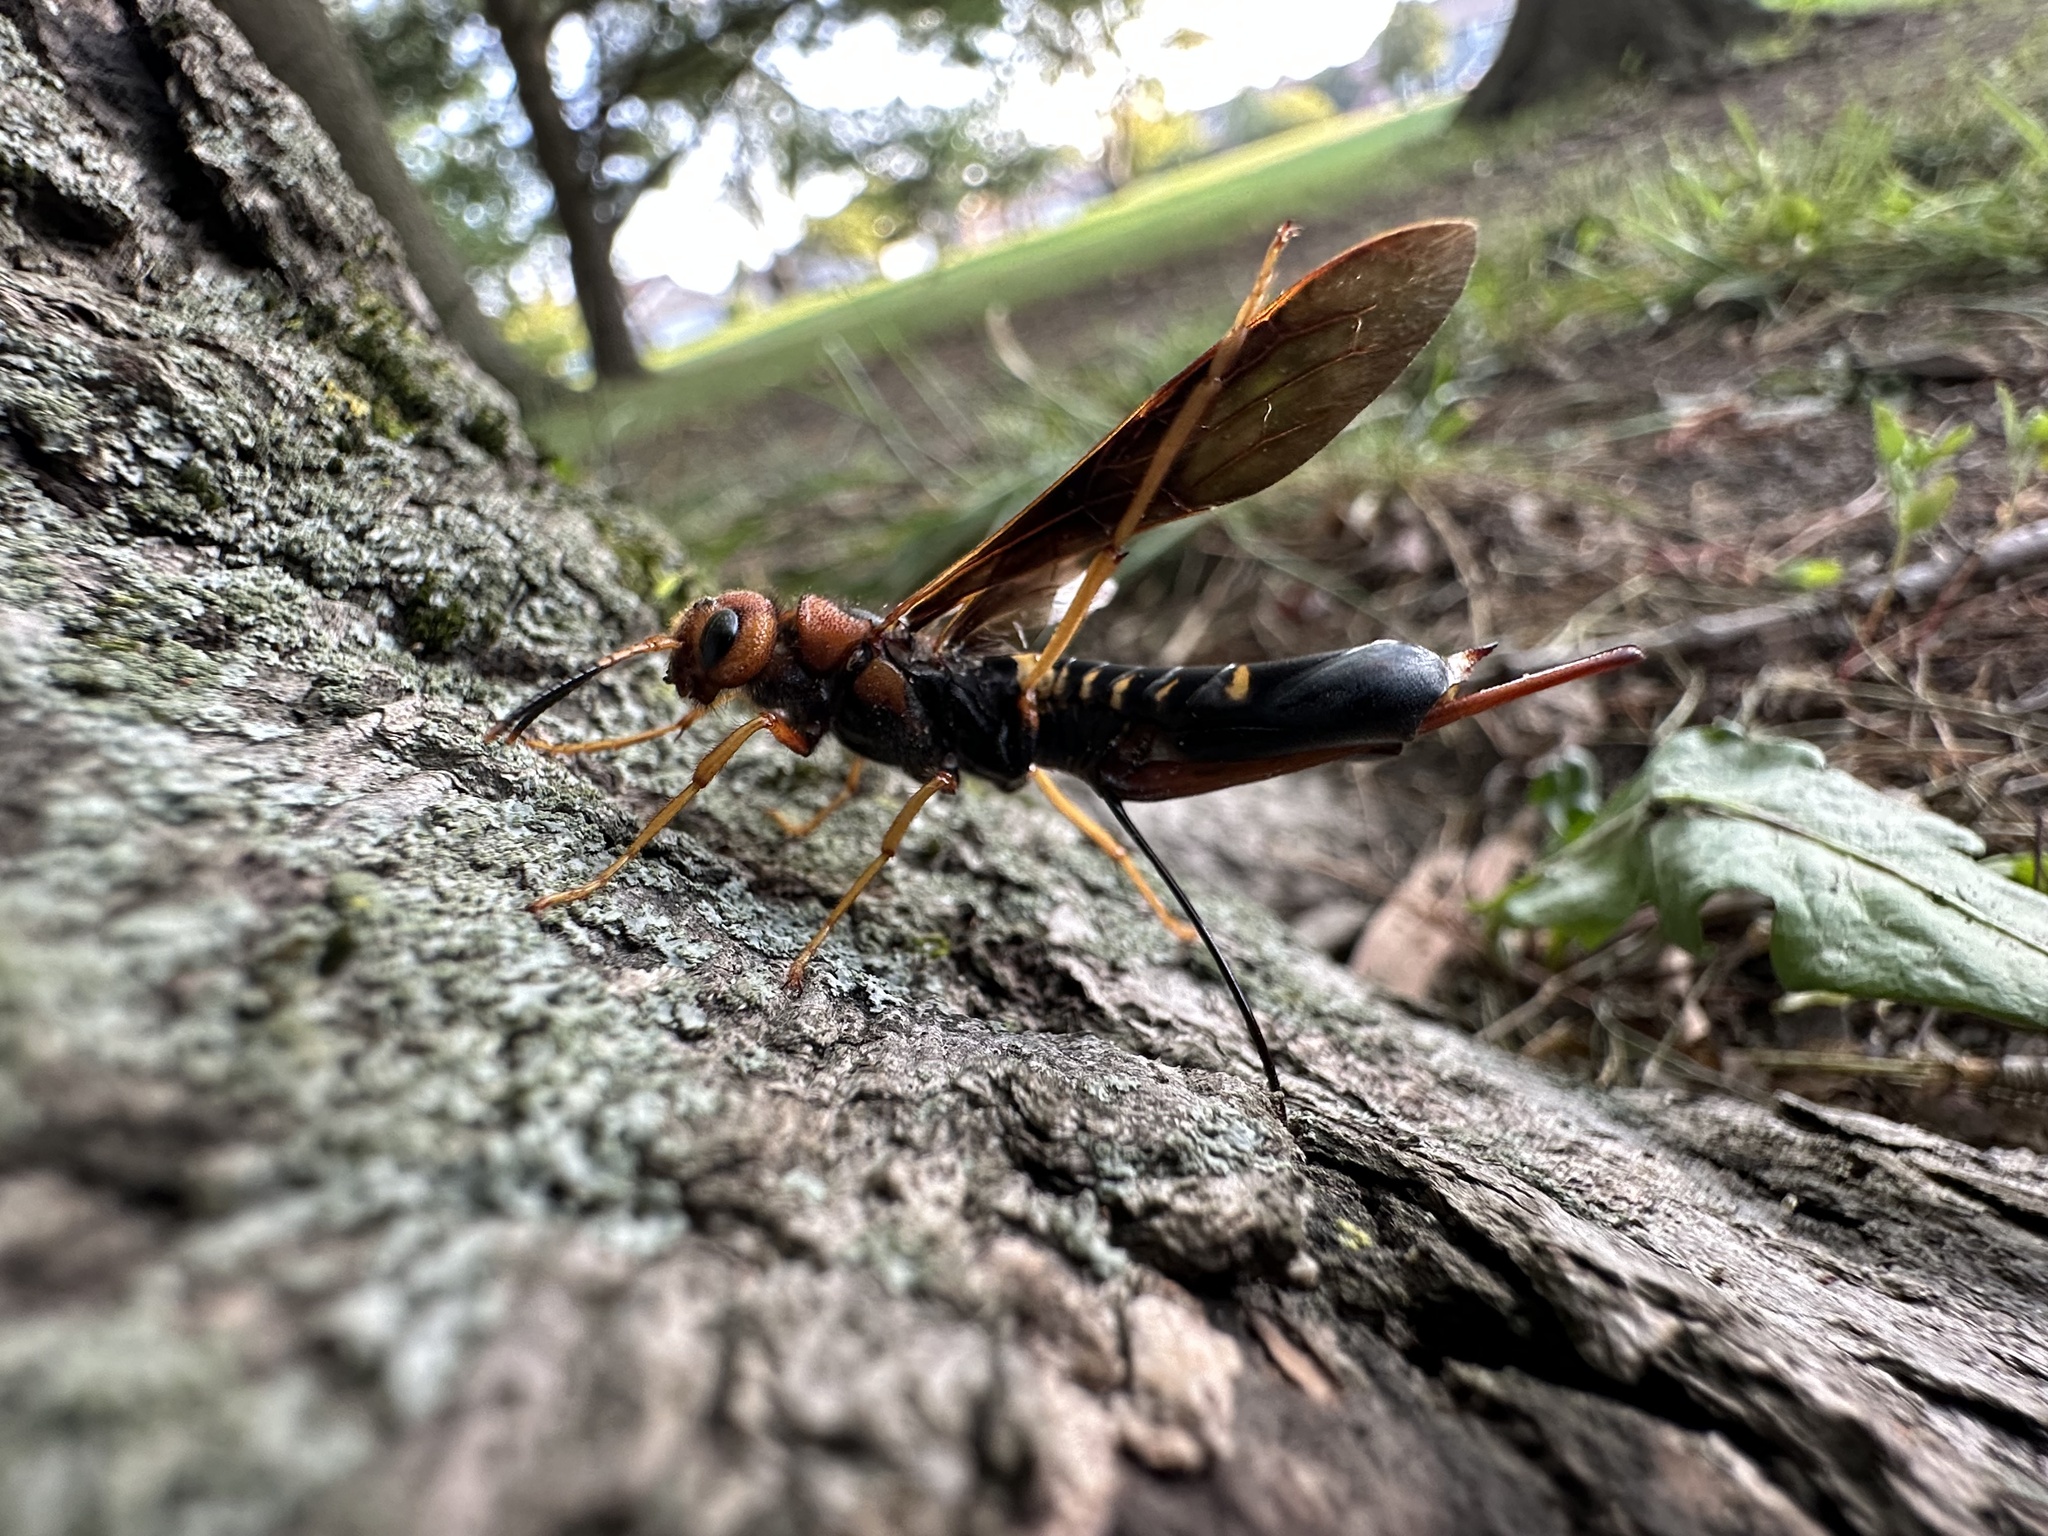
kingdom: Animalia
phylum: Arthropoda
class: Insecta
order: Hymenoptera
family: Siricidae
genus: Tremex
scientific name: Tremex columba
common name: Wasp
